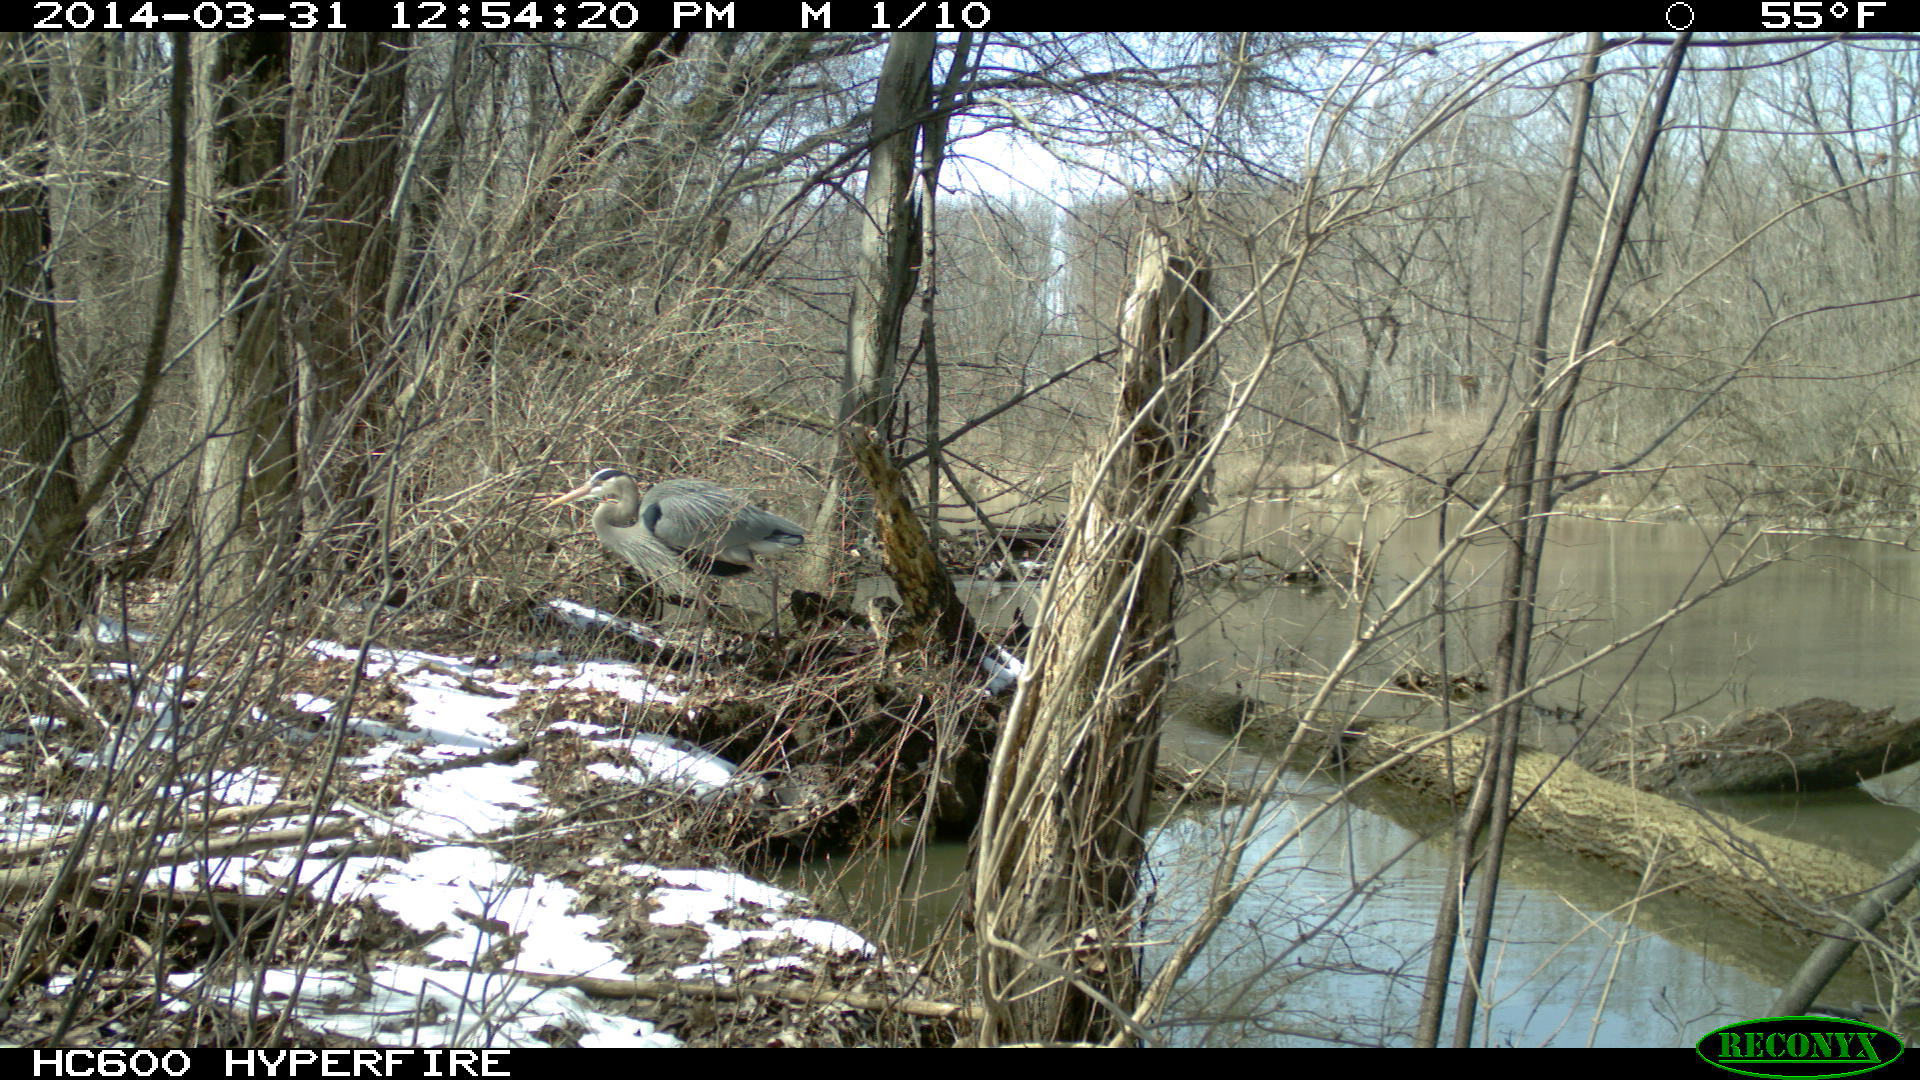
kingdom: Animalia
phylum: Chordata
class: Aves
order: Pelecaniformes
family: Ardeidae
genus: Ardea
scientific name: Ardea herodias
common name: Great blue heron
